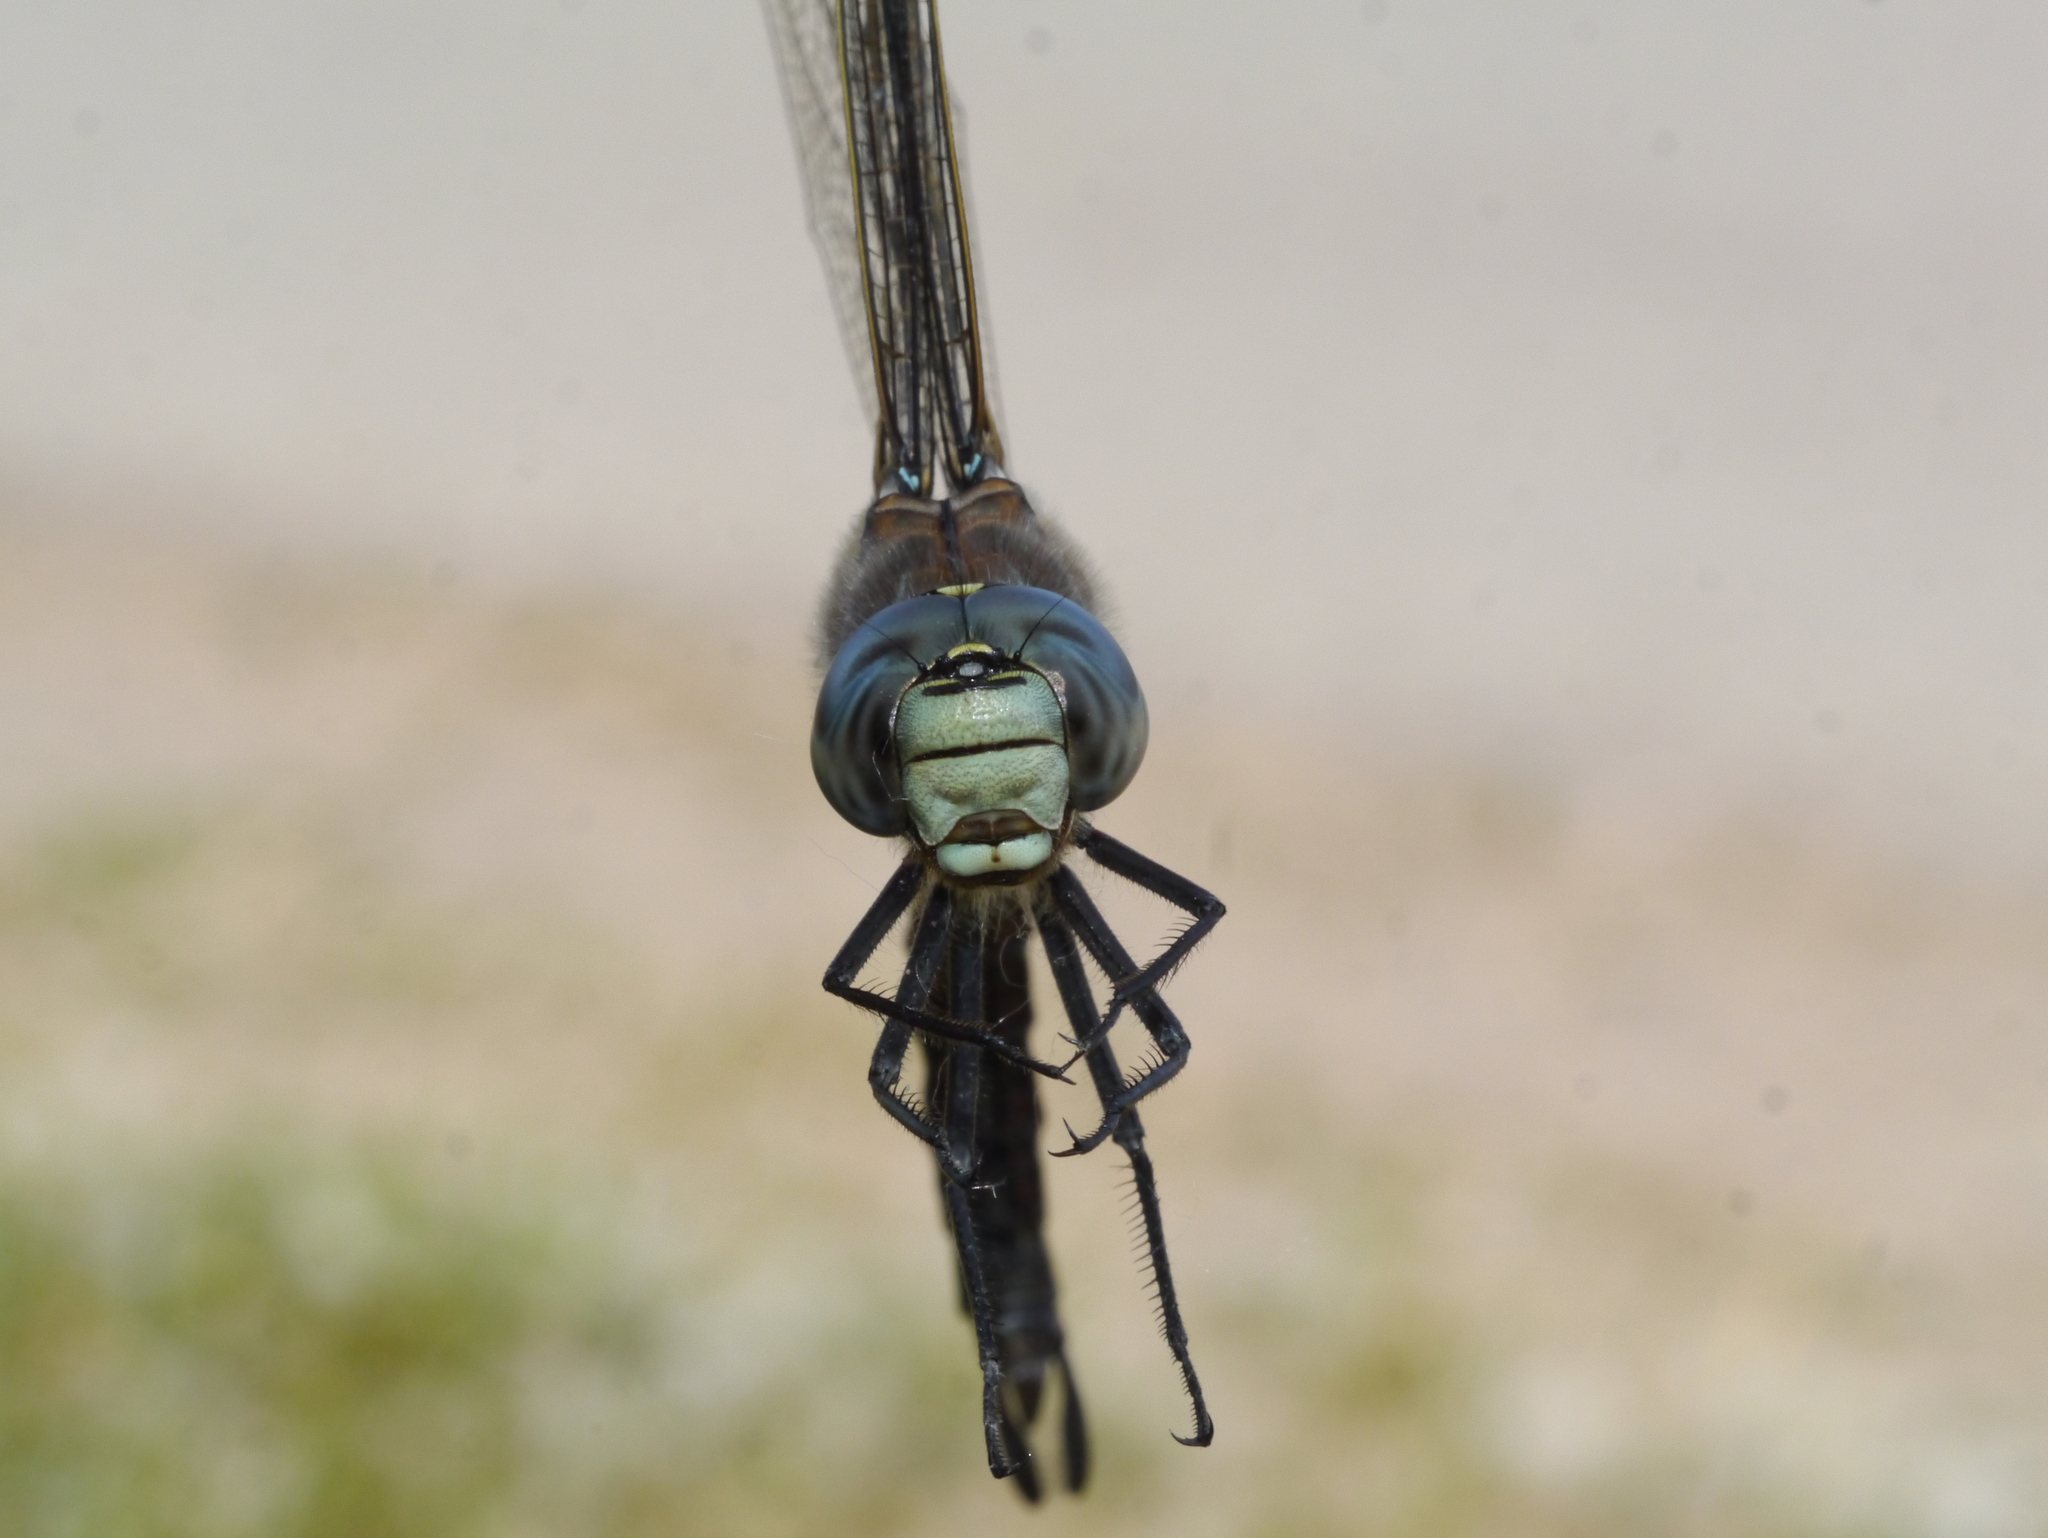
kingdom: Animalia
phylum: Arthropoda
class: Insecta
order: Odonata
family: Aeshnidae
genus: Aeshna
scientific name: Aeshna interrupta
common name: Variable darner
